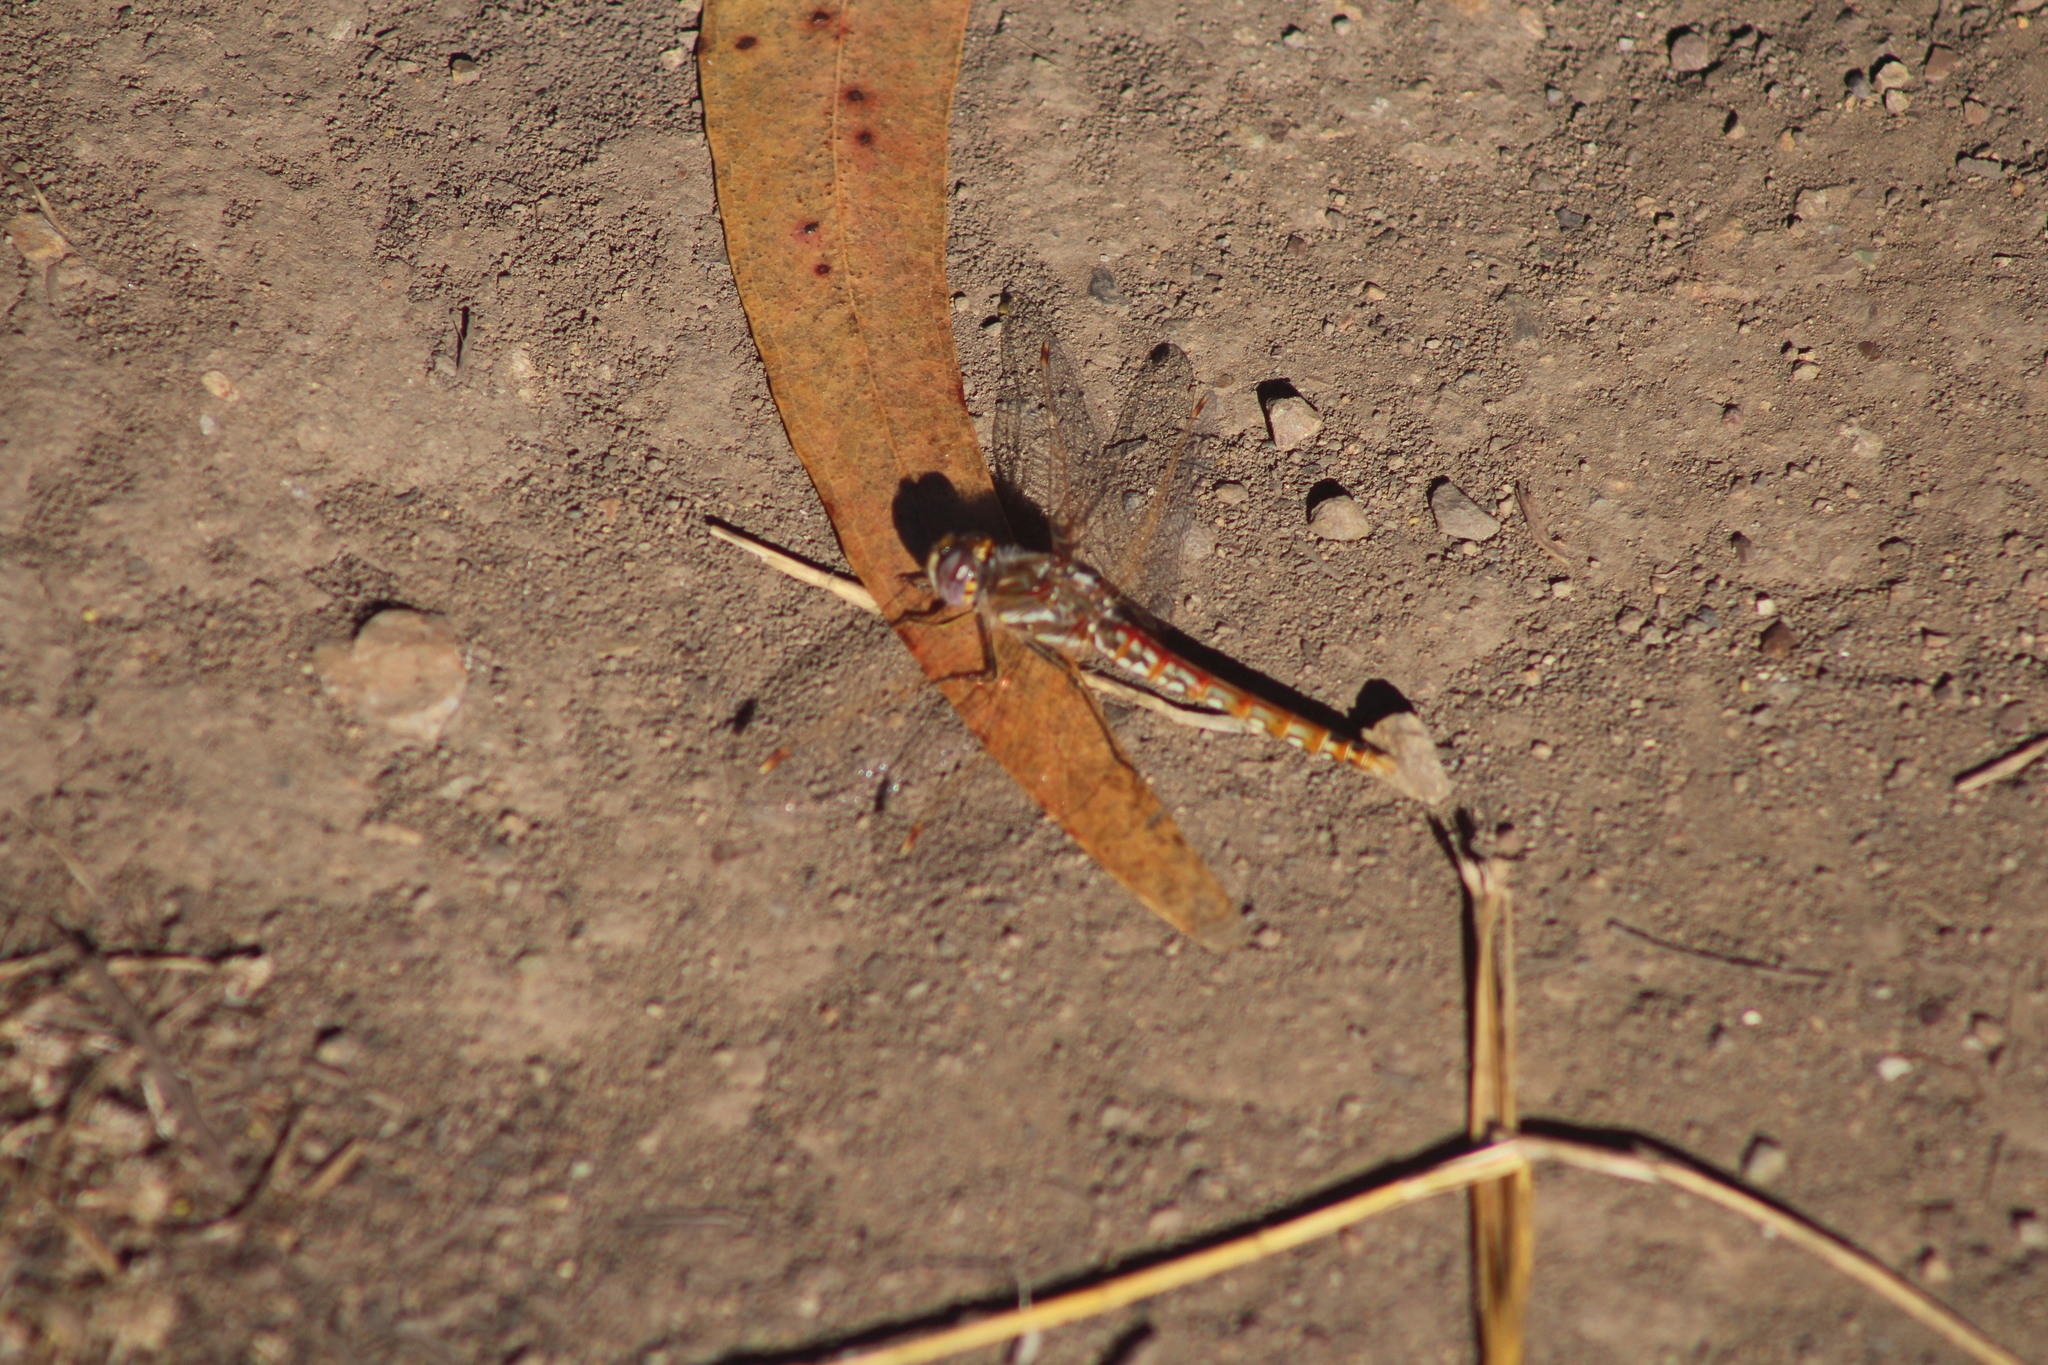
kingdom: Animalia
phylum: Arthropoda
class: Insecta
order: Odonata
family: Libellulidae
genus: Sympetrum
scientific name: Sympetrum corruptum
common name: Variegated meadowhawk
